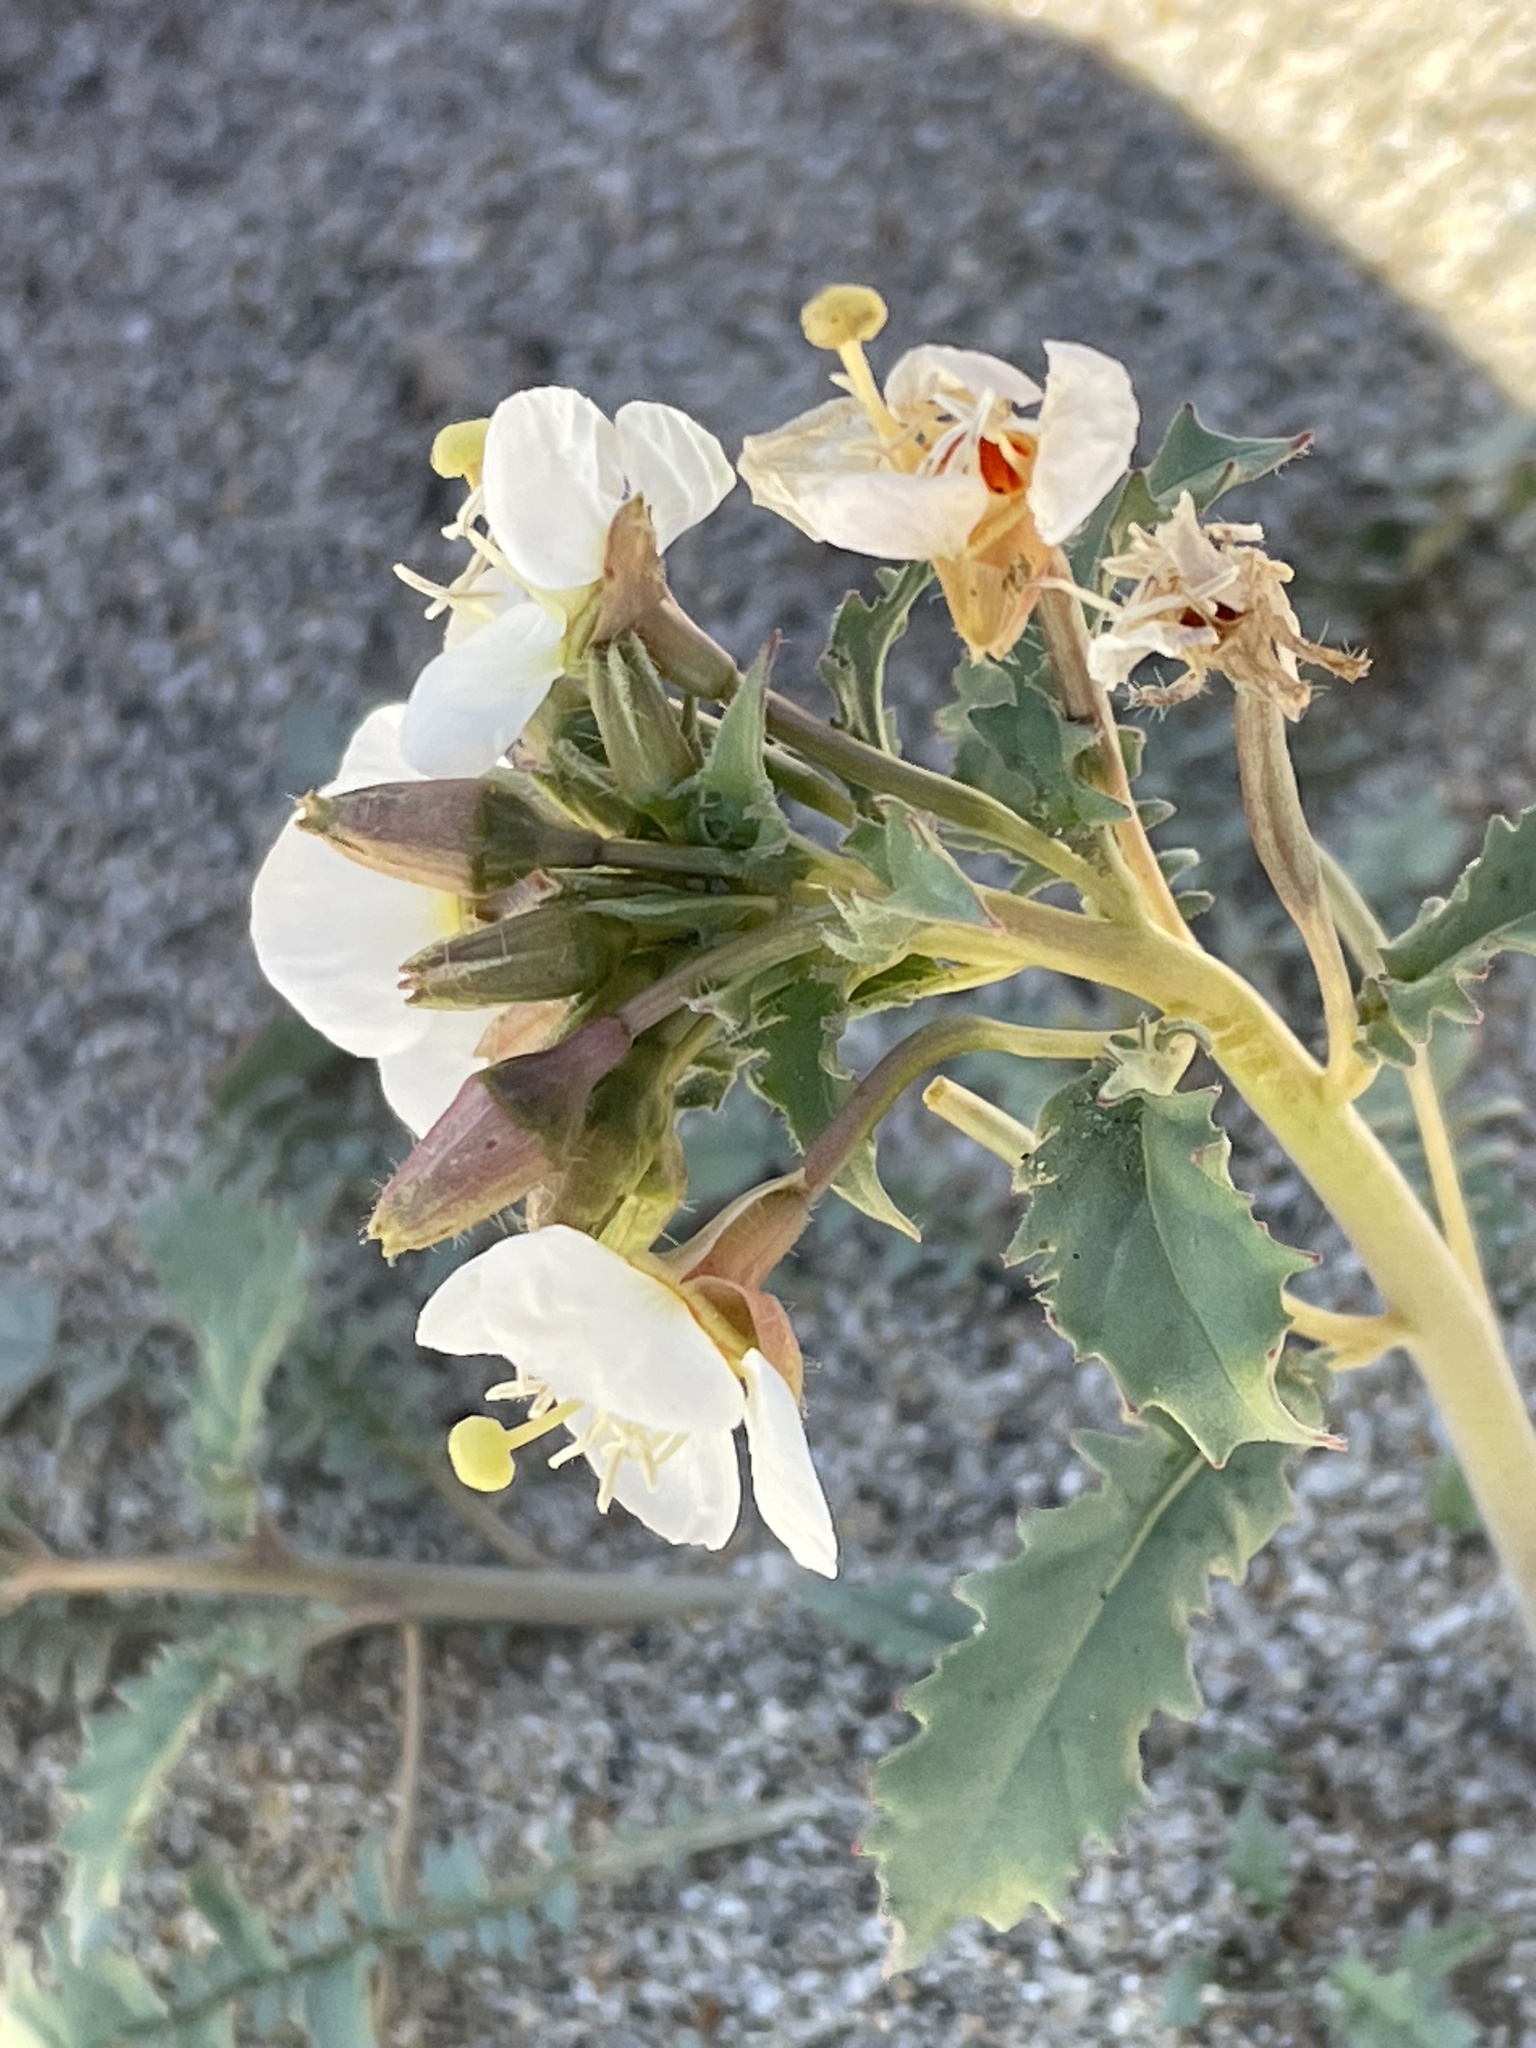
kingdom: Plantae
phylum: Tracheophyta
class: Magnoliopsida
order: Myrtales
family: Onagraceae
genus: Chylismia
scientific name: Chylismia claviformis
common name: Browneyes
